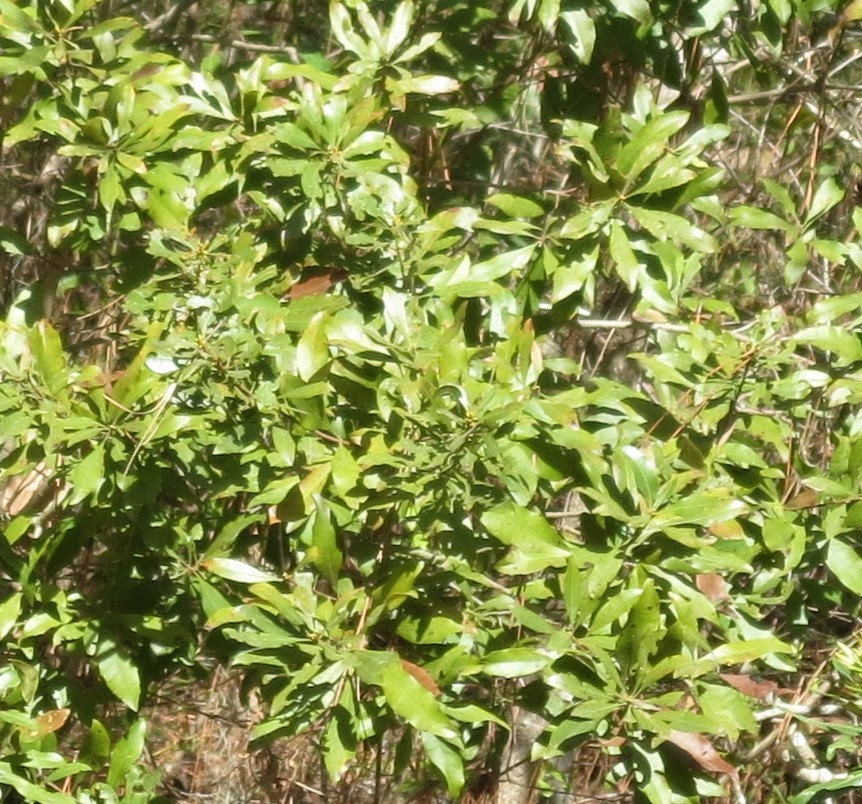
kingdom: Plantae
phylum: Tracheophyta
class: Magnoliopsida
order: Fagales
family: Myricaceae
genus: Morella
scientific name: Morella cerifera
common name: Wax myrtle
